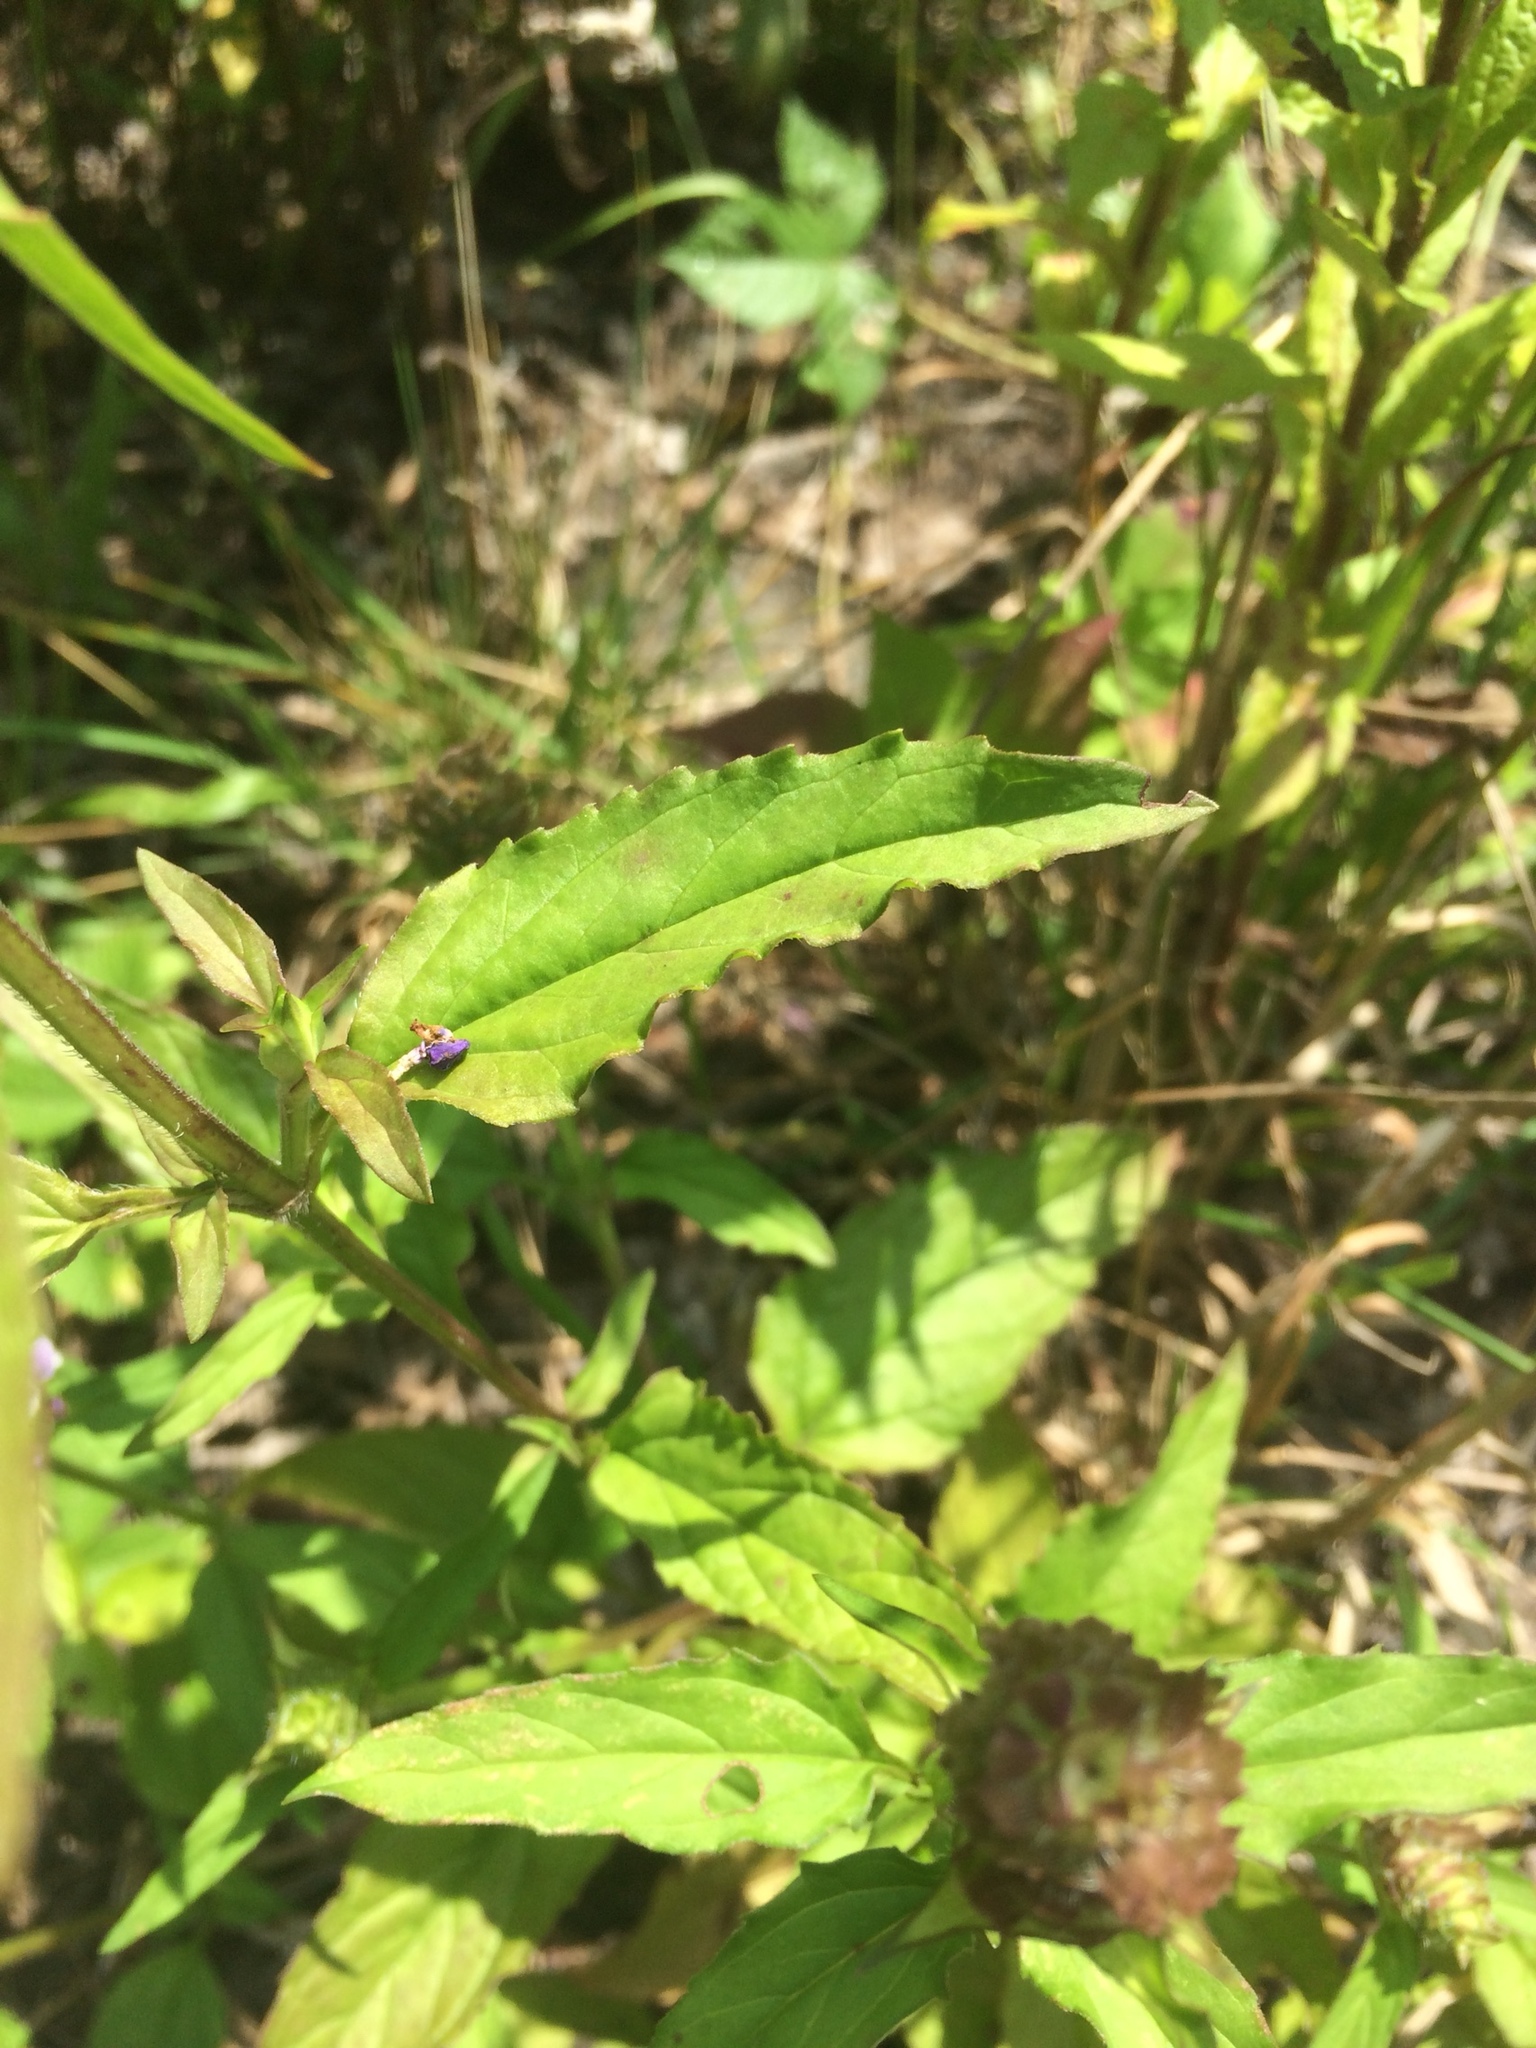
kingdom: Plantae
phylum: Tracheophyta
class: Magnoliopsida
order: Lamiales
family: Lamiaceae
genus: Prunella
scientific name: Prunella vulgaris
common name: Heal-all
